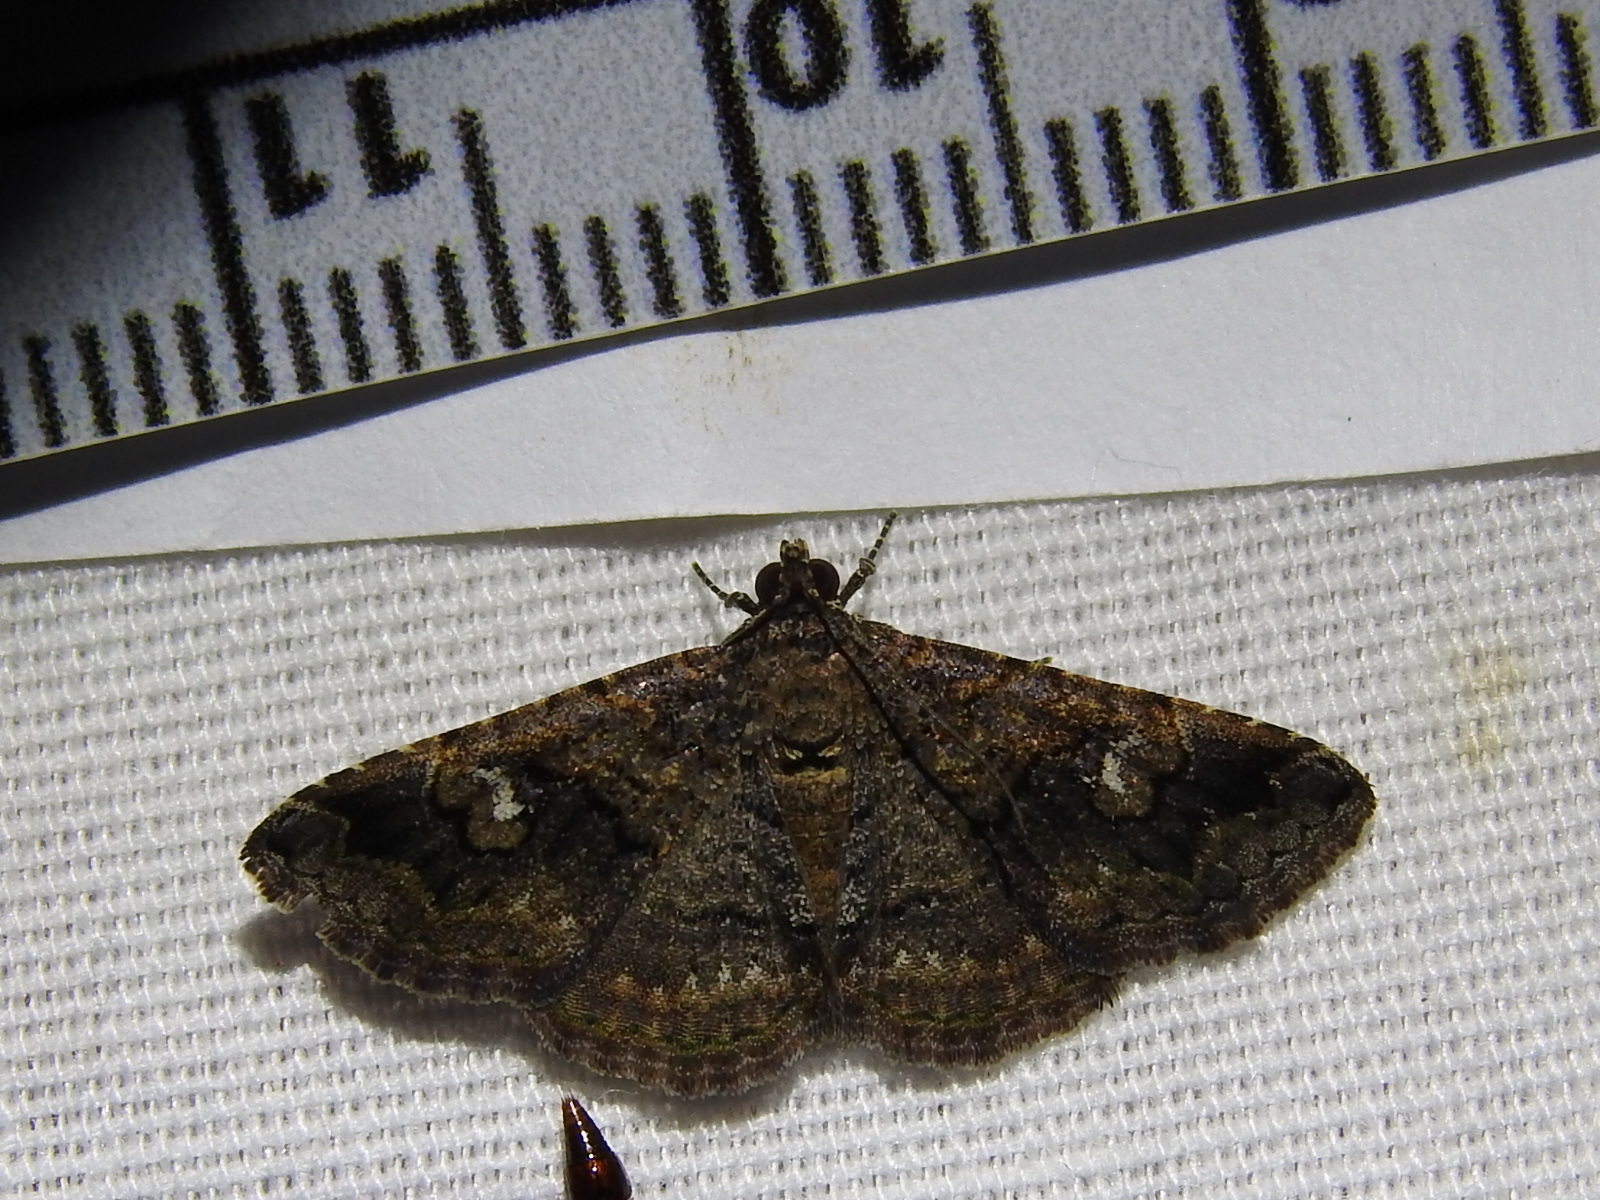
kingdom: Animalia
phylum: Arthropoda
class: Insecta
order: Lepidoptera
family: Erebidae
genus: Toxonprucha
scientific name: Toxonprucha excavata
